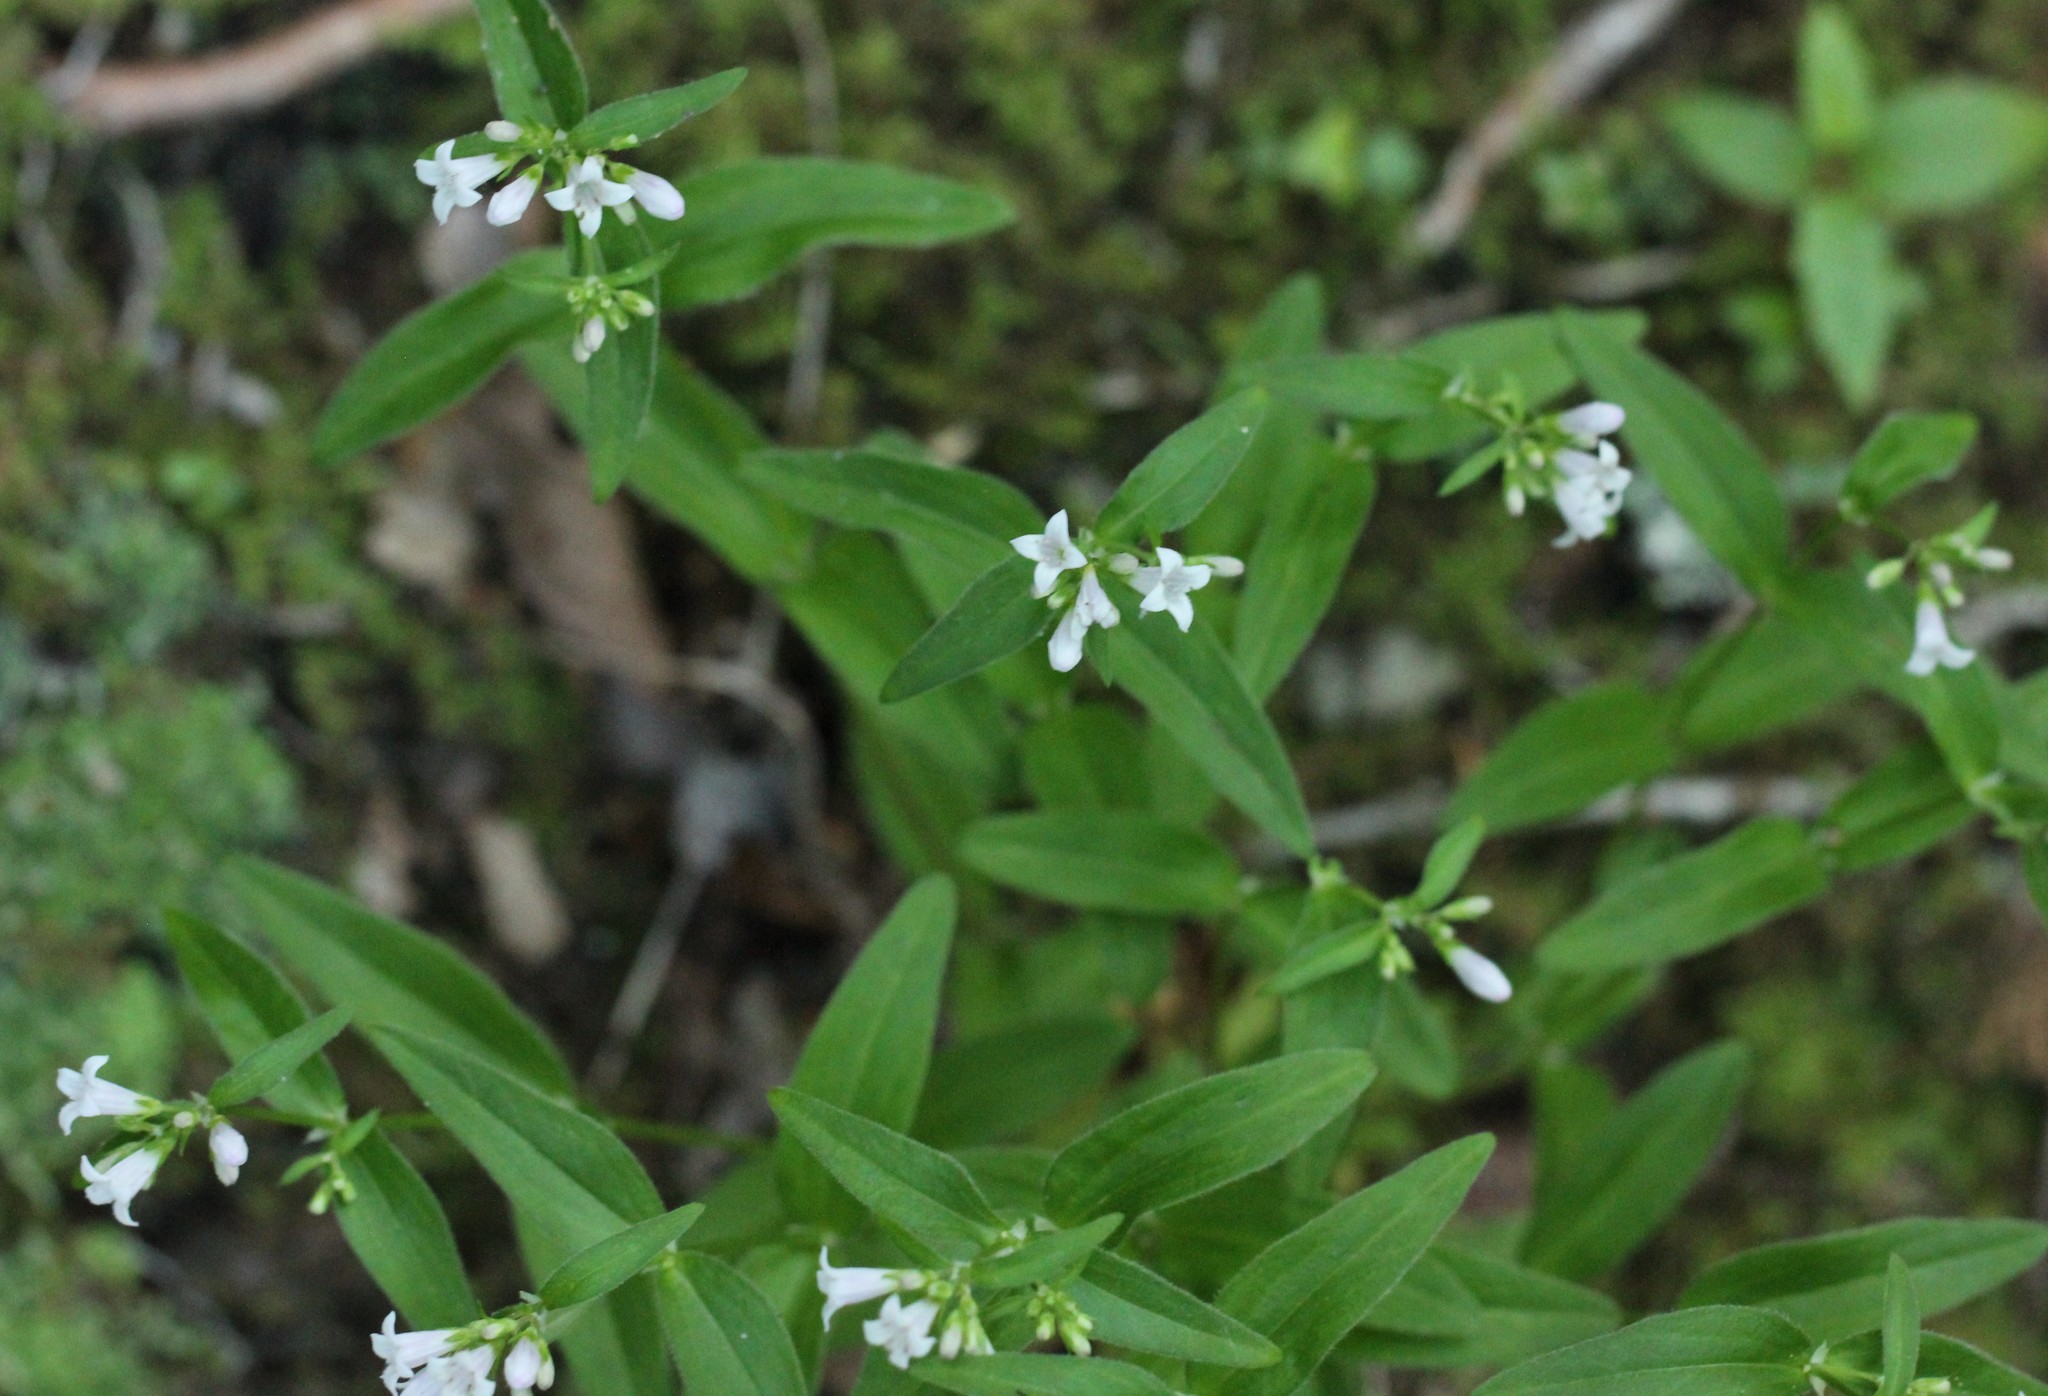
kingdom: Plantae
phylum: Tracheophyta
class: Magnoliopsida
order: Gentianales
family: Rubiaceae
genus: Houstonia
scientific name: Houstonia purpurea
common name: Summer bluet
